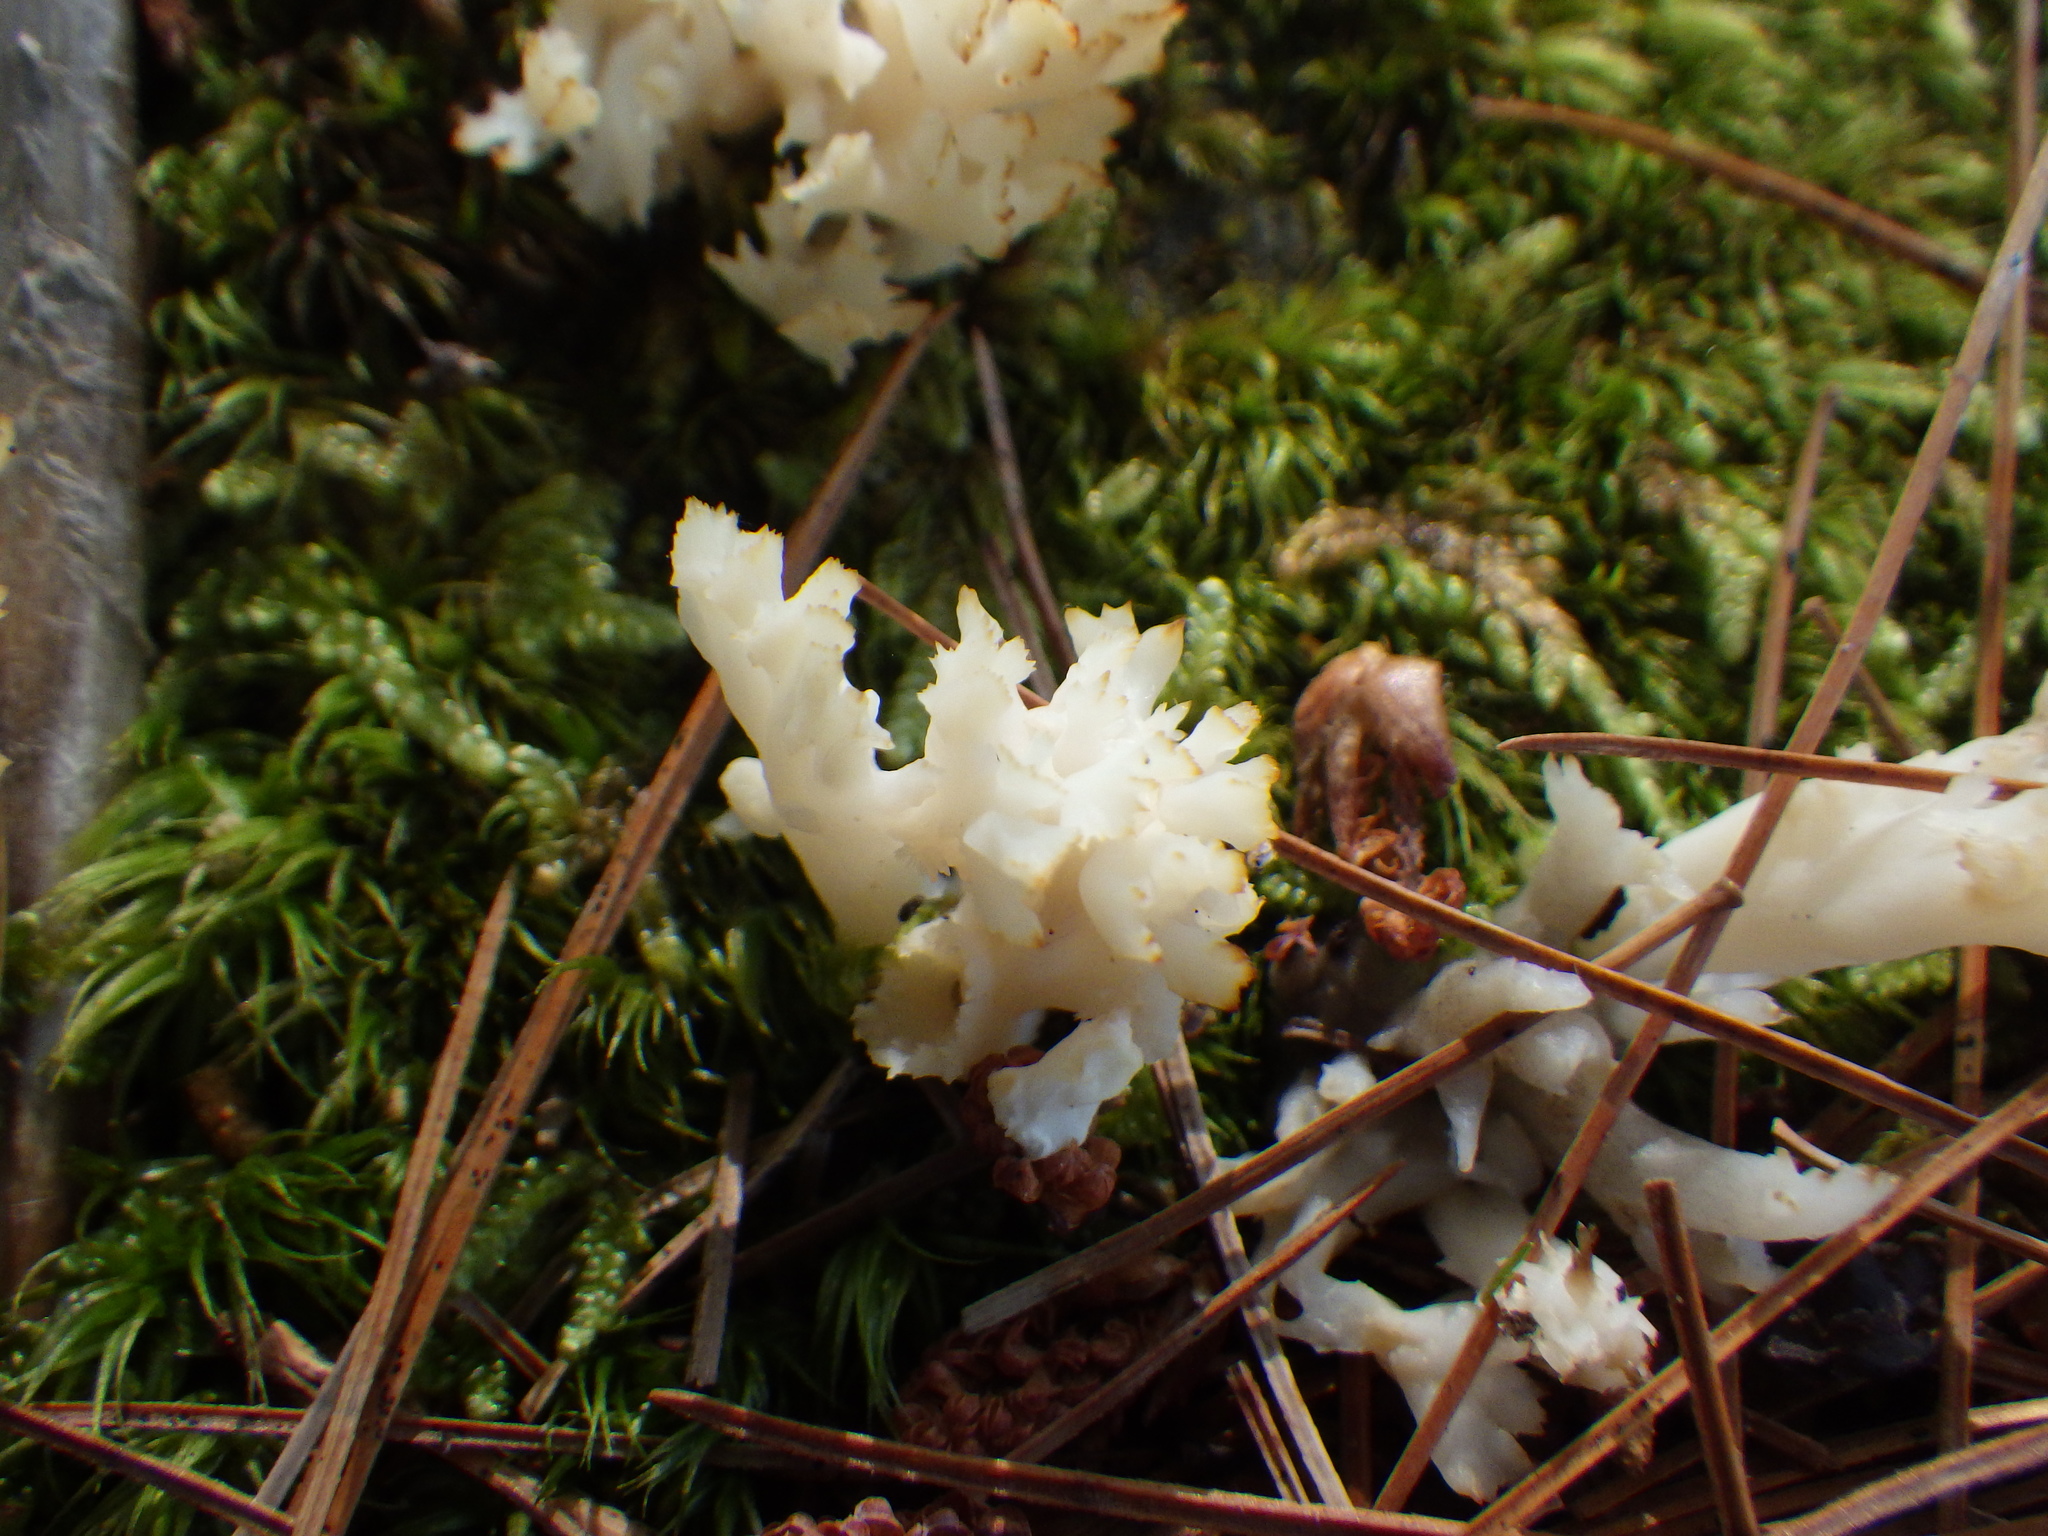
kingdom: Fungi
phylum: Basidiomycota
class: Agaricomycetes
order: Cantharellales
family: Hydnaceae
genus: Clavulina
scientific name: Clavulina coralloides
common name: Crested coral
